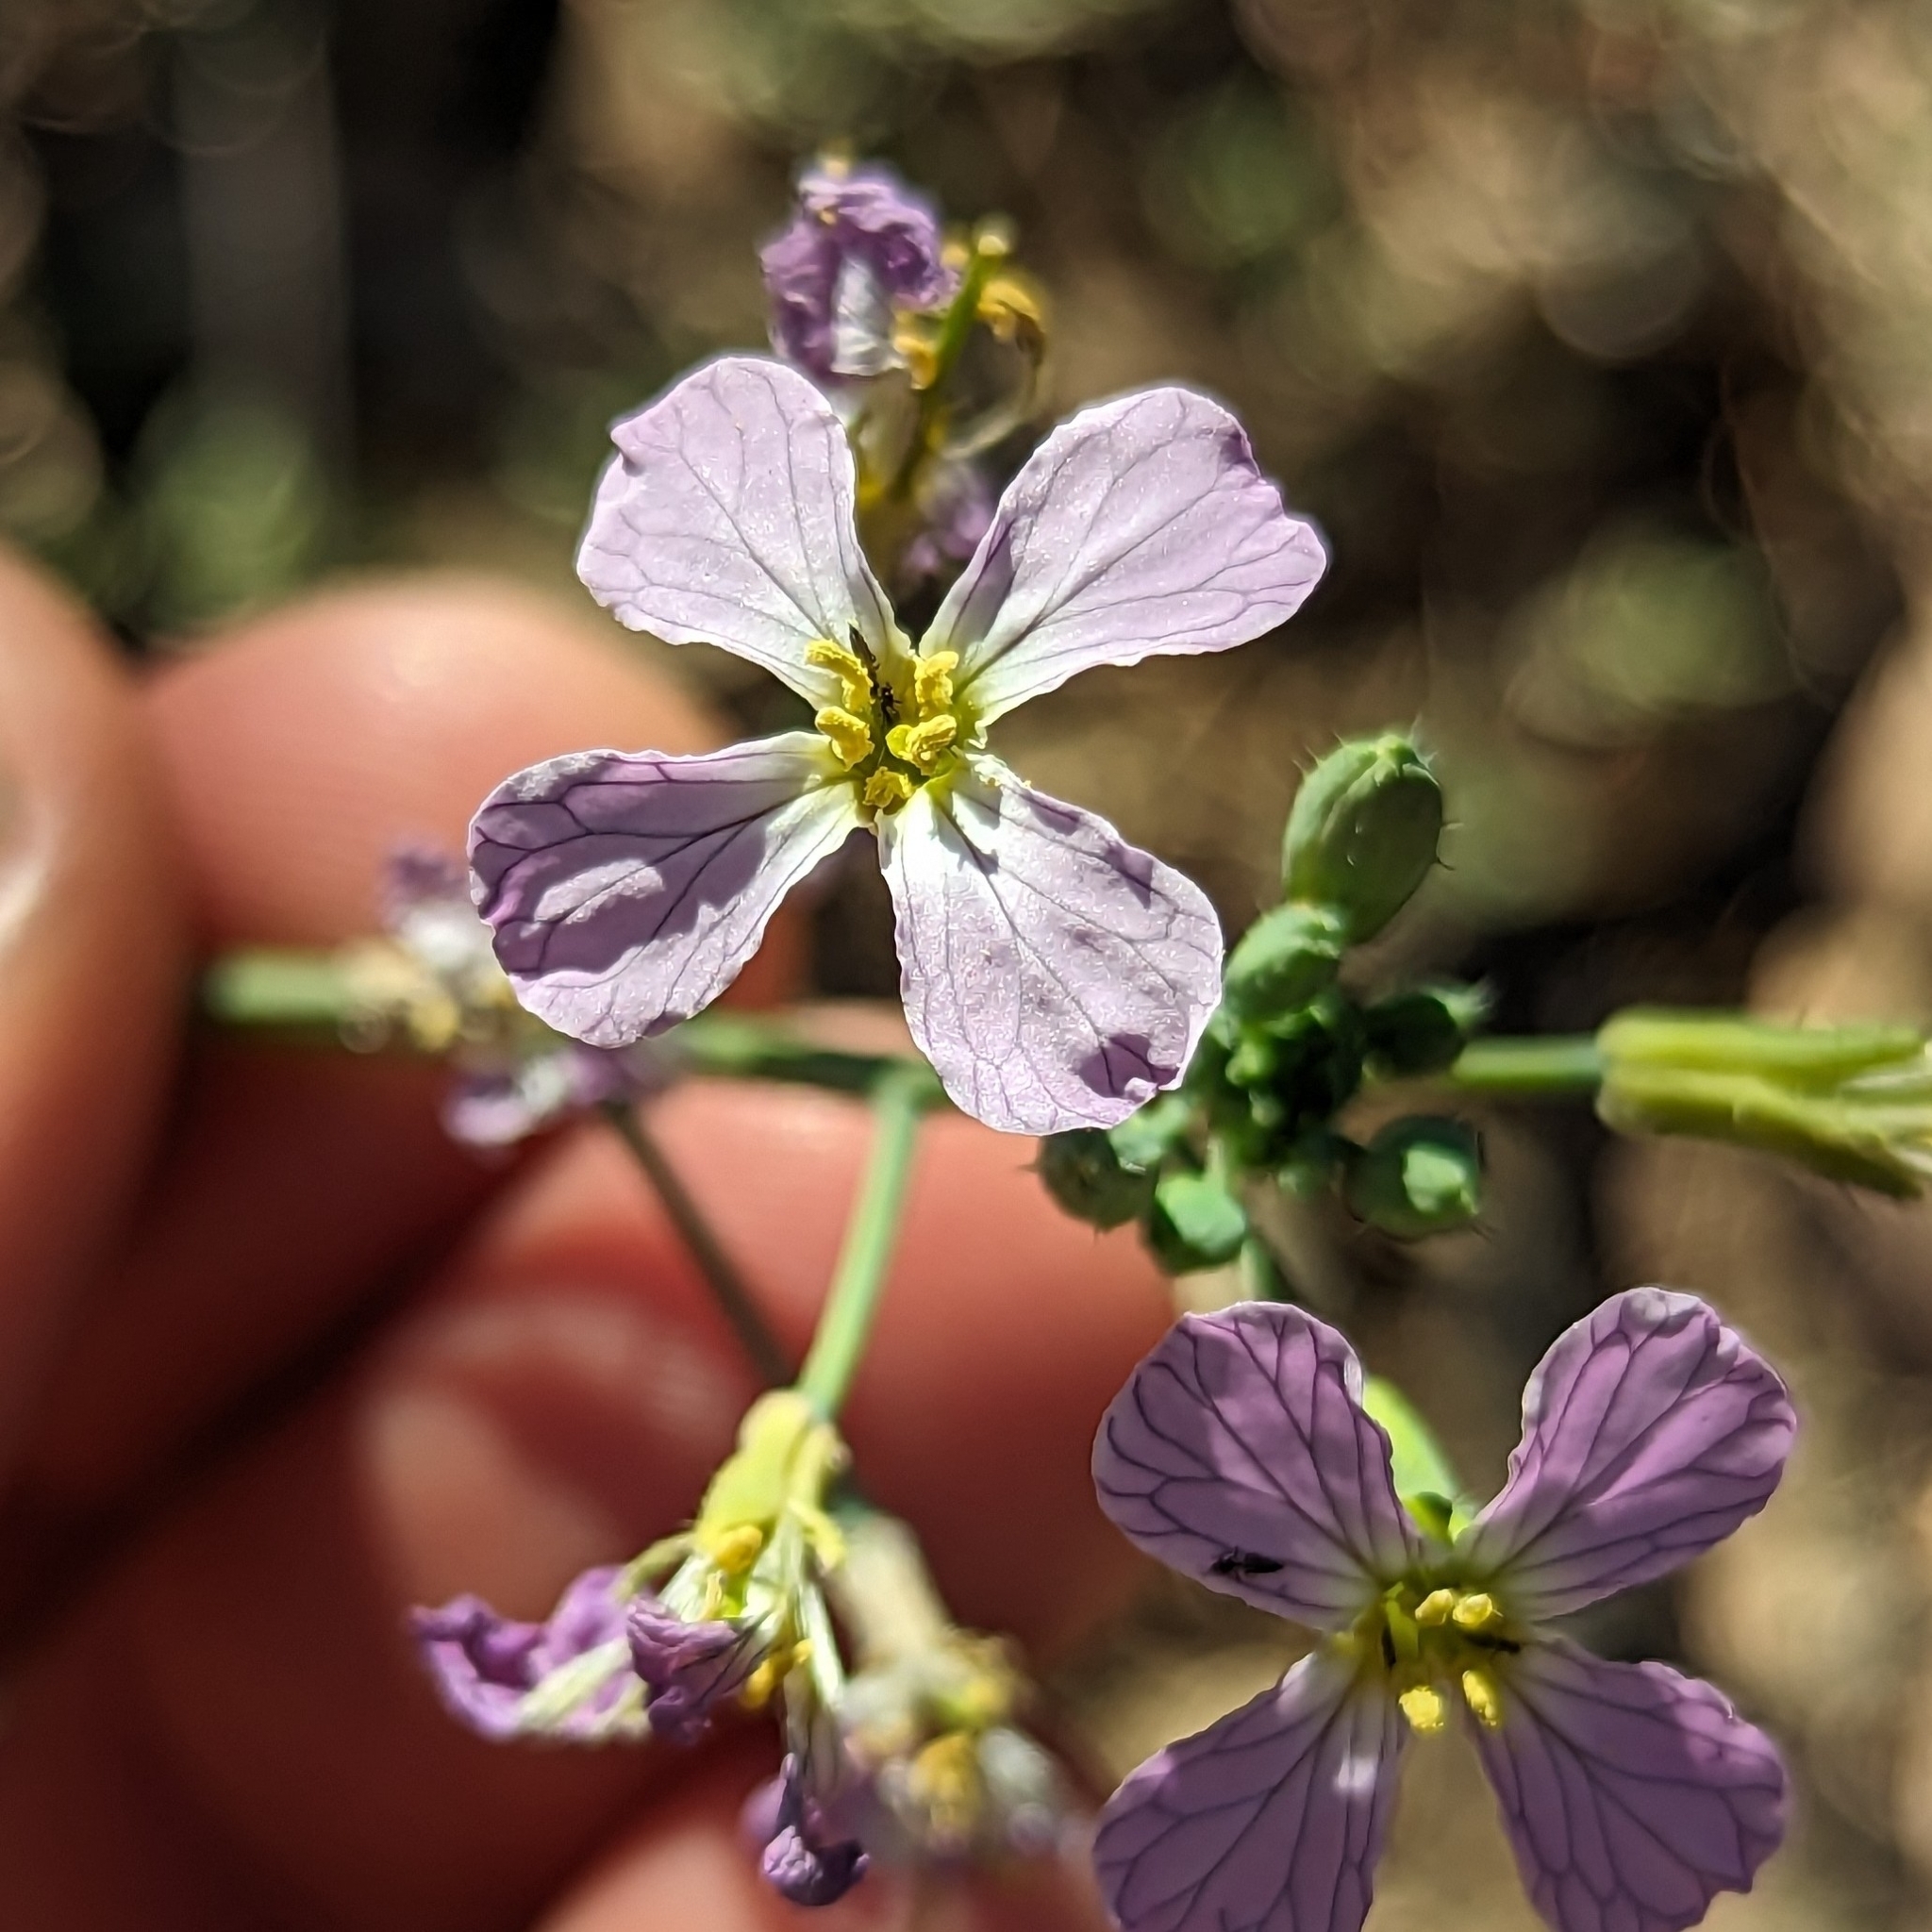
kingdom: Plantae
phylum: Tracheophyta
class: Magnoliopsida
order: Brassicales
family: Brassicaceae
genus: Raphanus
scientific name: Raphanus sativus
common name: Cultivated radish
